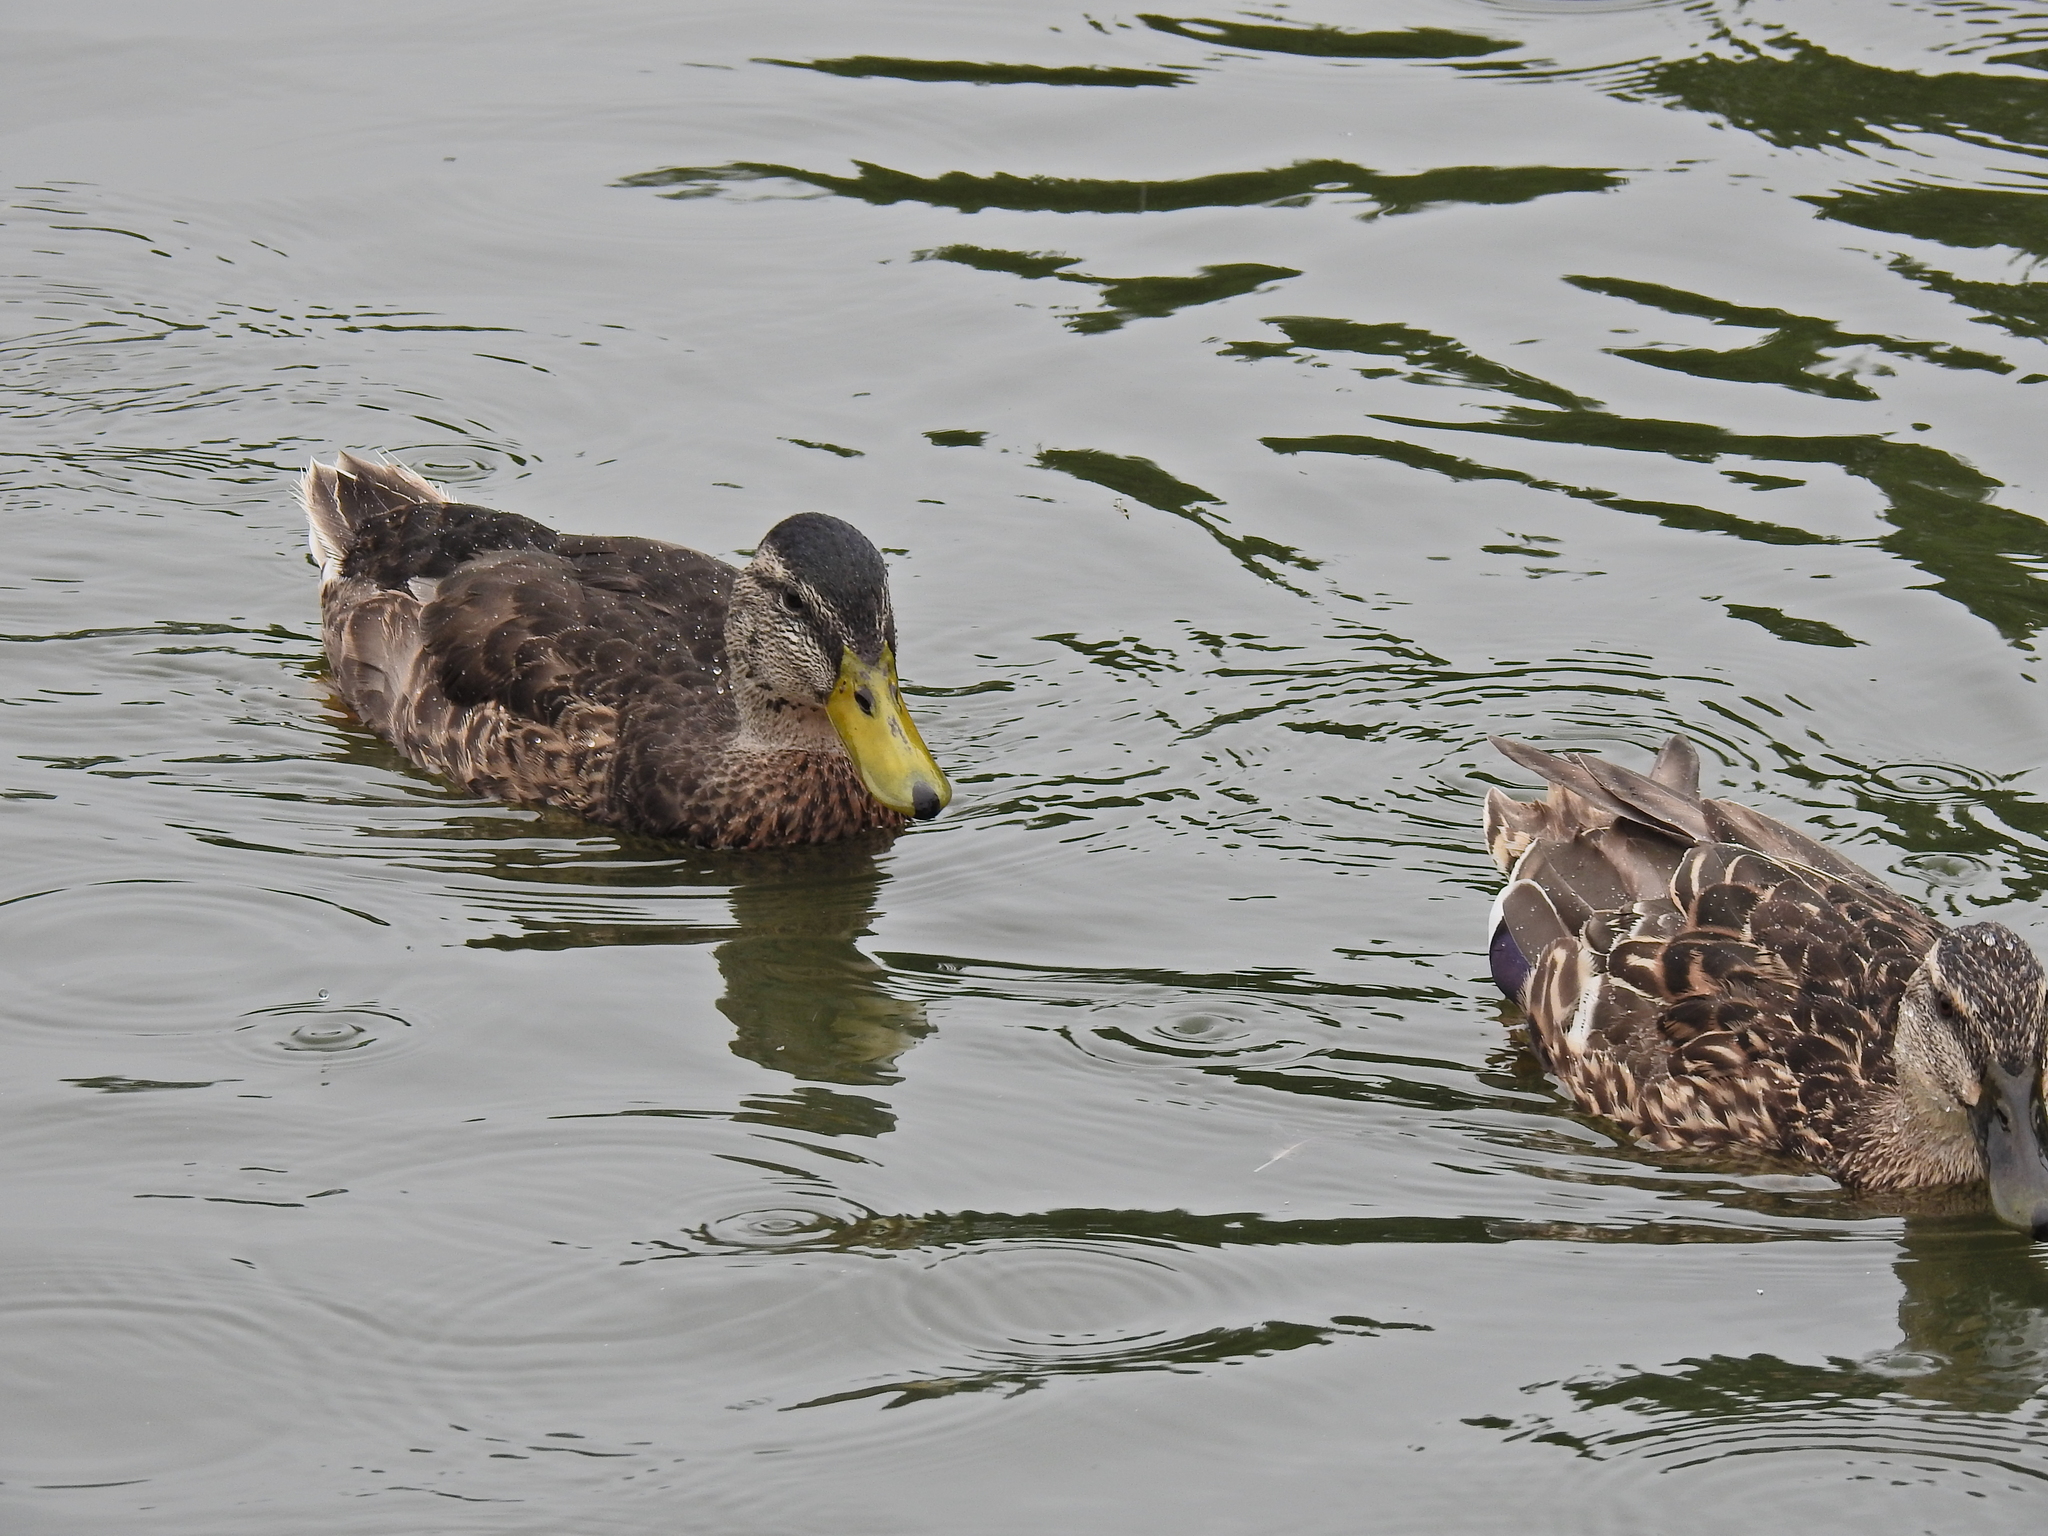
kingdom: Animalia
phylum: Chordata
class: Aves
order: Anseriformes
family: Anatidae
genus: Anas
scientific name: Anas platyrhynchos
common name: Mallard
